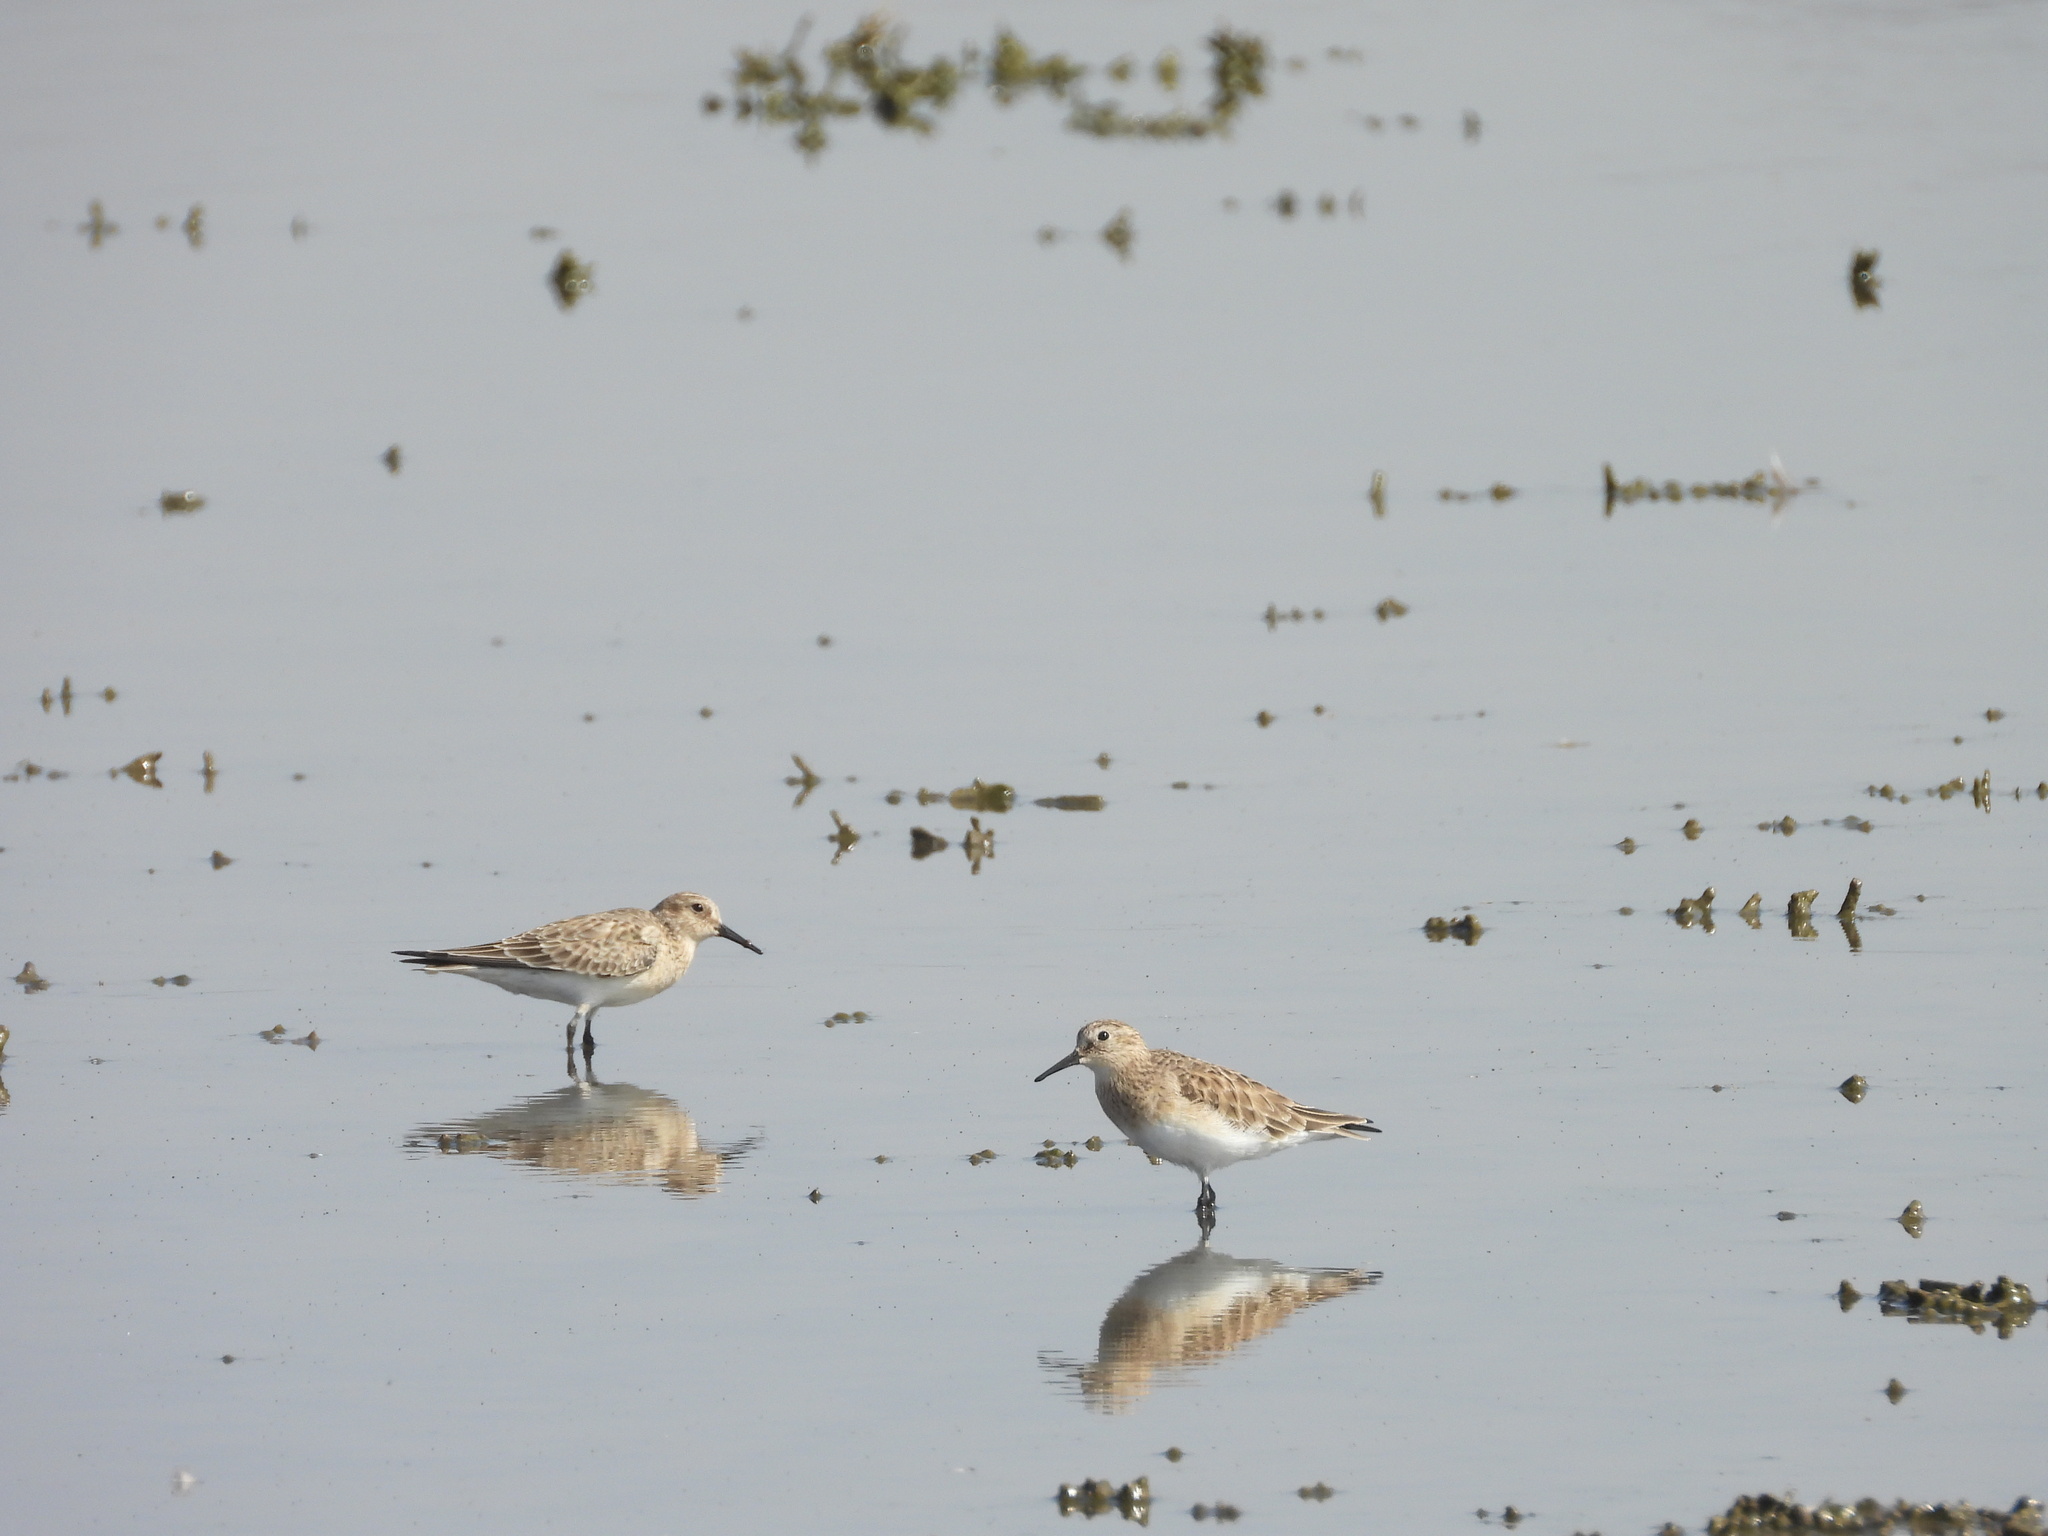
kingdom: Animalia
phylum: Chordata
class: Aves
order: Charadriiformes
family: Scolopacidae
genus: Calidris
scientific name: Calidris bairdii
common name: Baird's sandpiper
